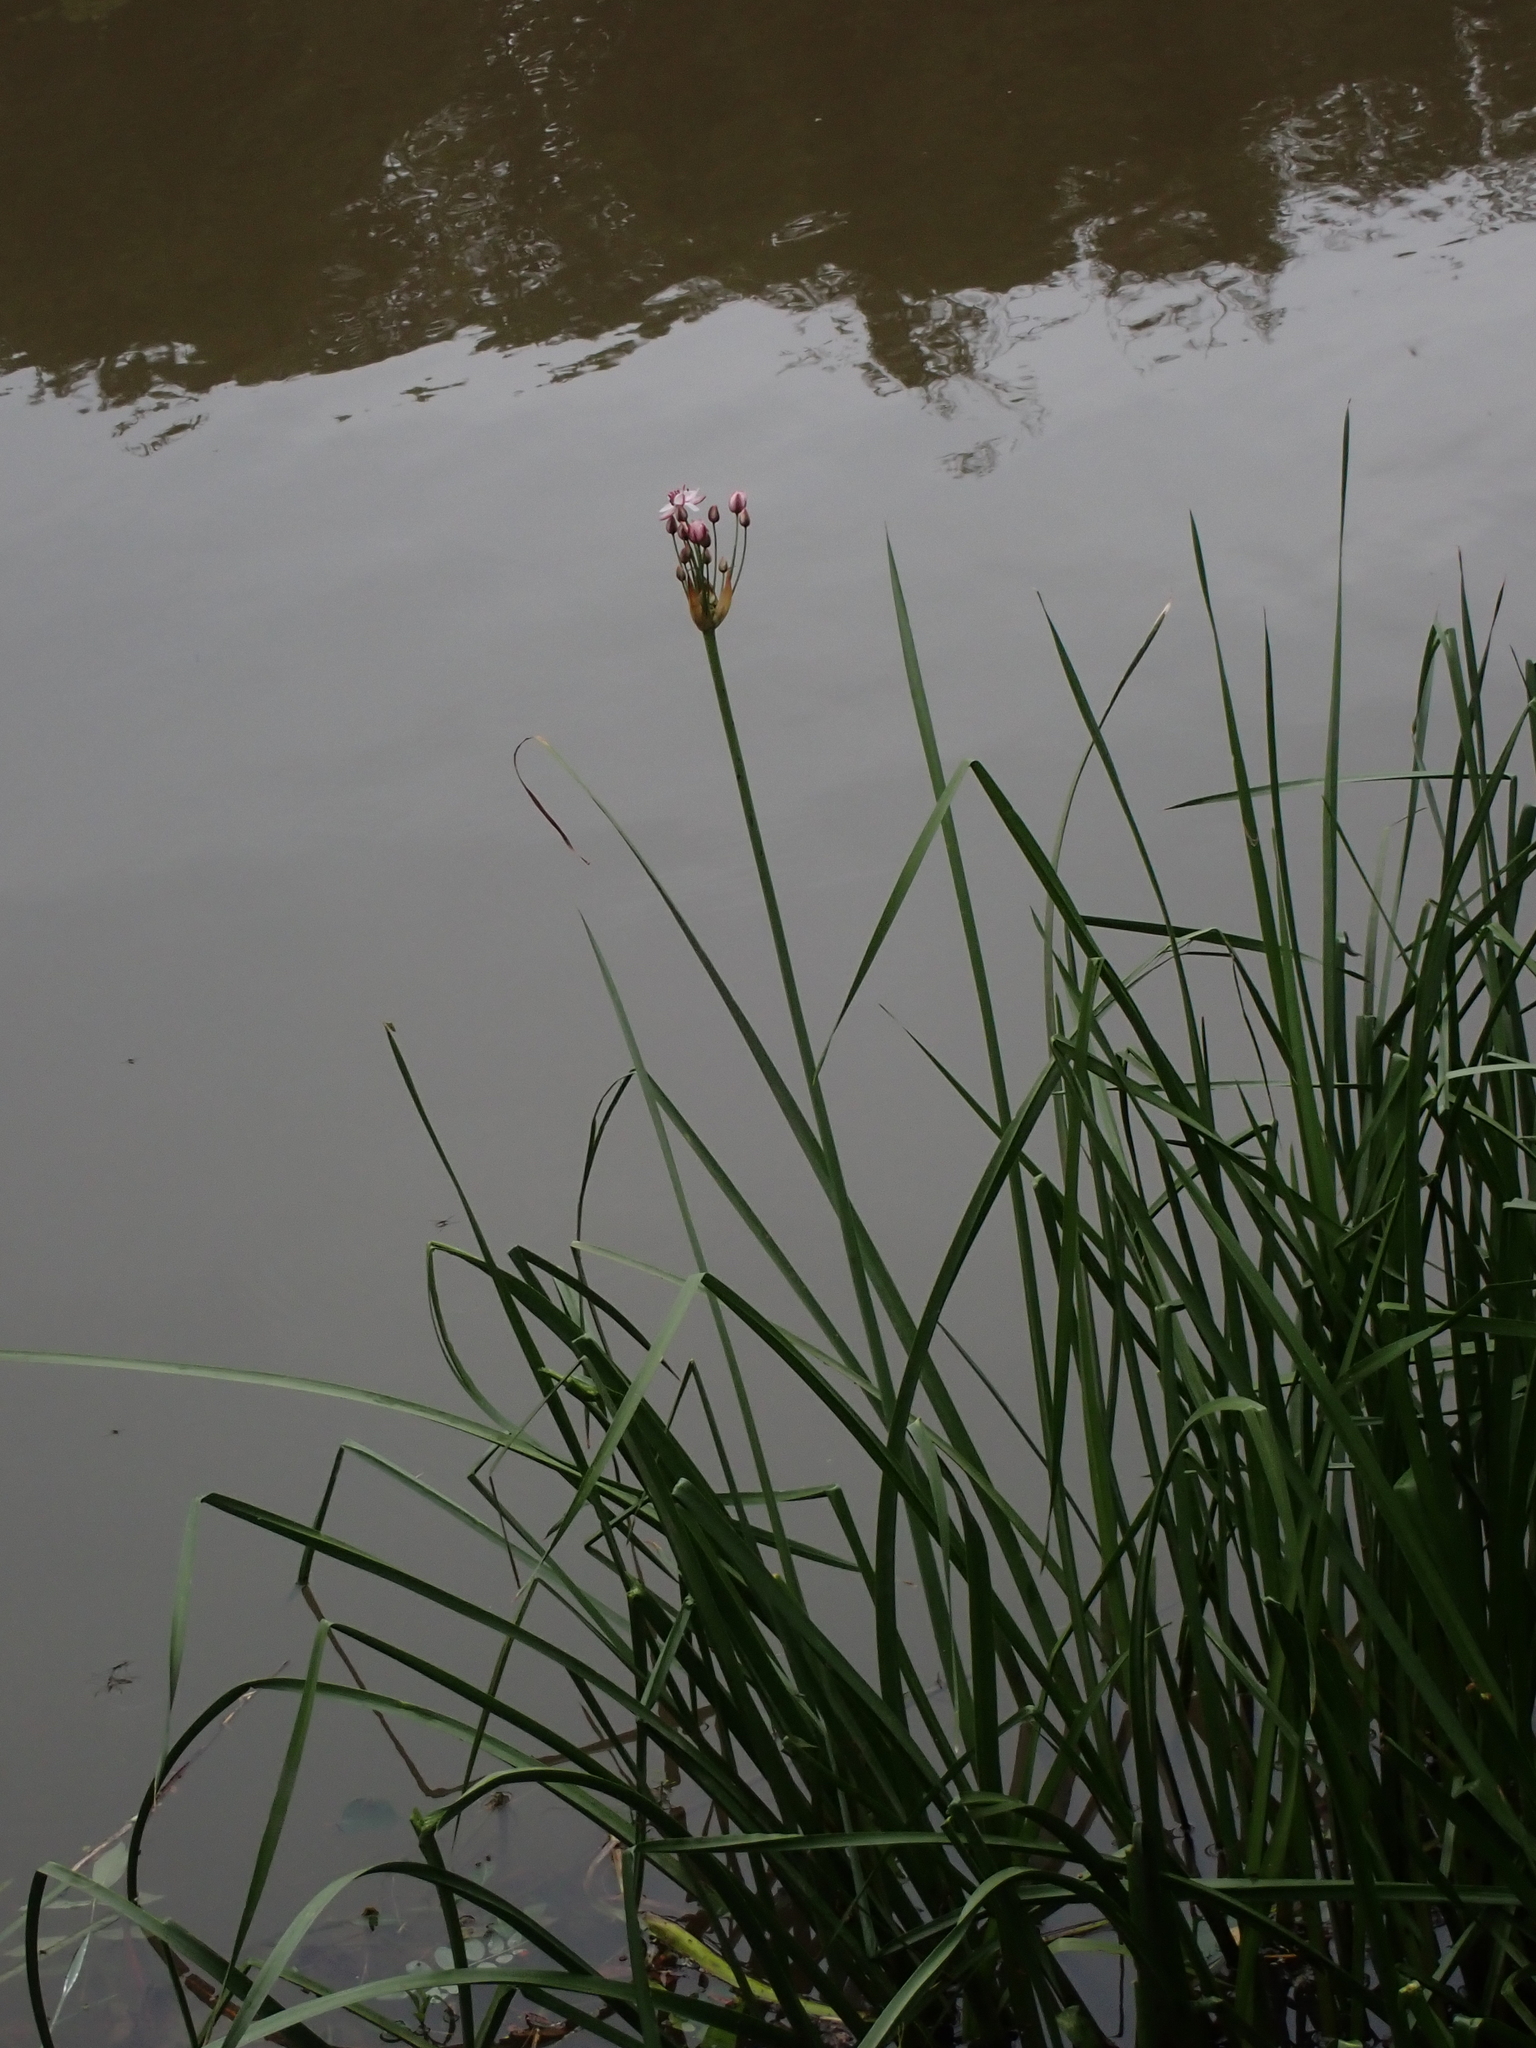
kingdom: Plantae
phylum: Tracheophyta
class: Liliopsida
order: Alismatales
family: Butomaceae
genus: Butomus
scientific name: Butomus umbellatus
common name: Flowering-rush
